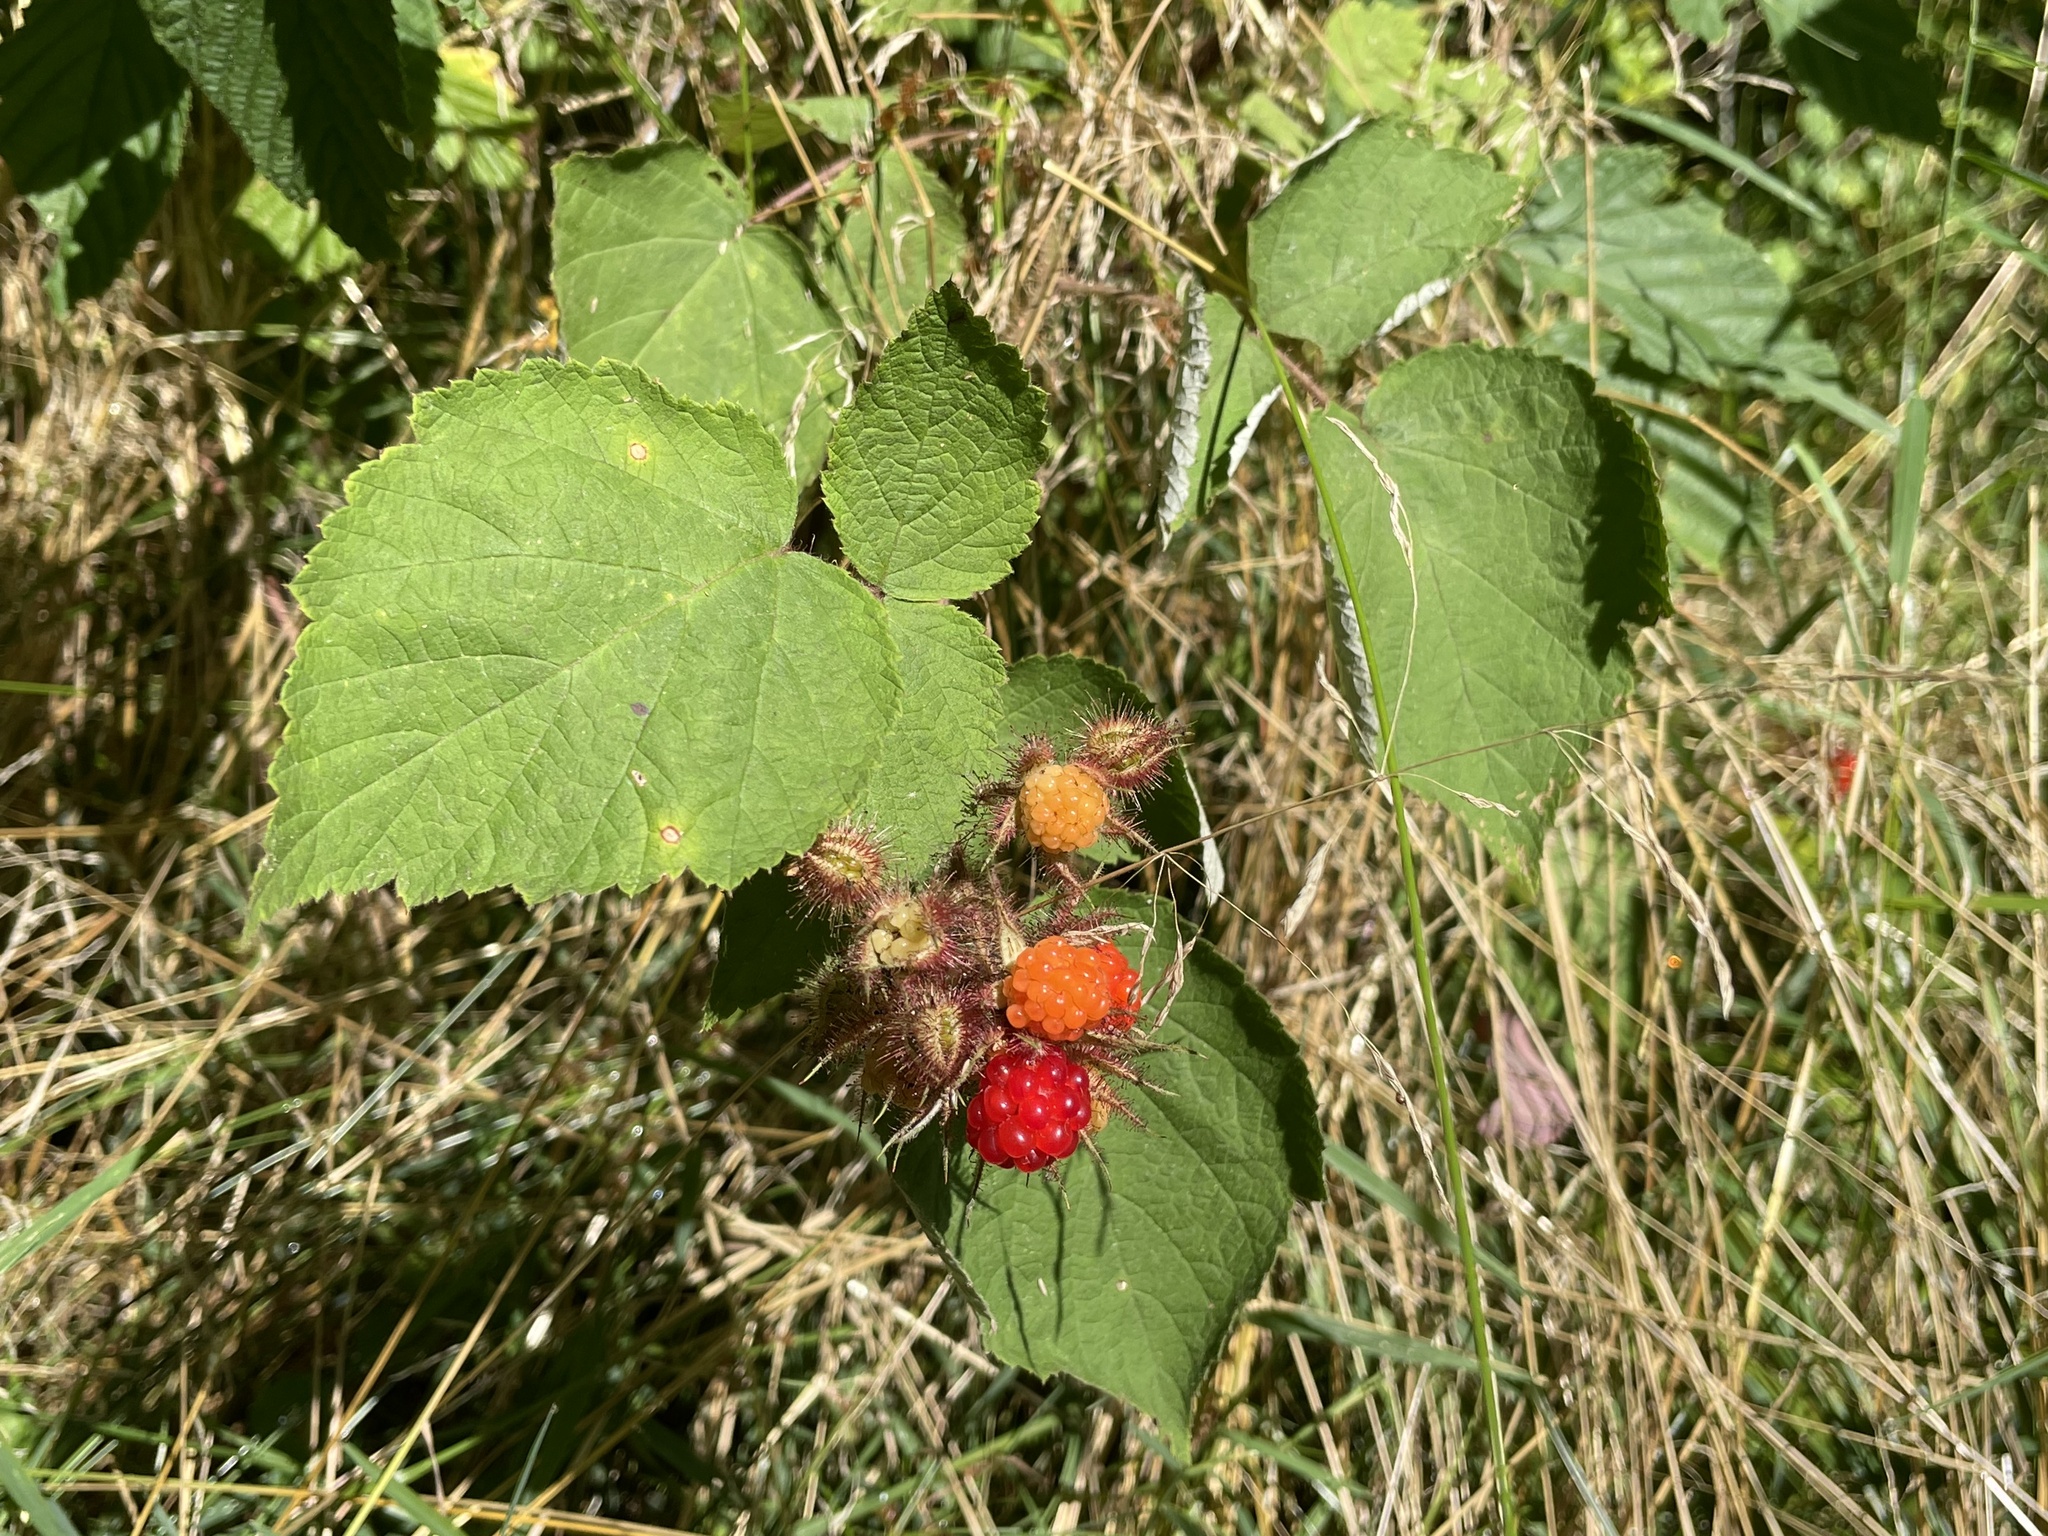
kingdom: Plantae
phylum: Tracheophyta
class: Magnoliopsida
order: Rosales
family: Rosaceae
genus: Rubus
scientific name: Rubus phoenicolasius
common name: Japanese wineberry
